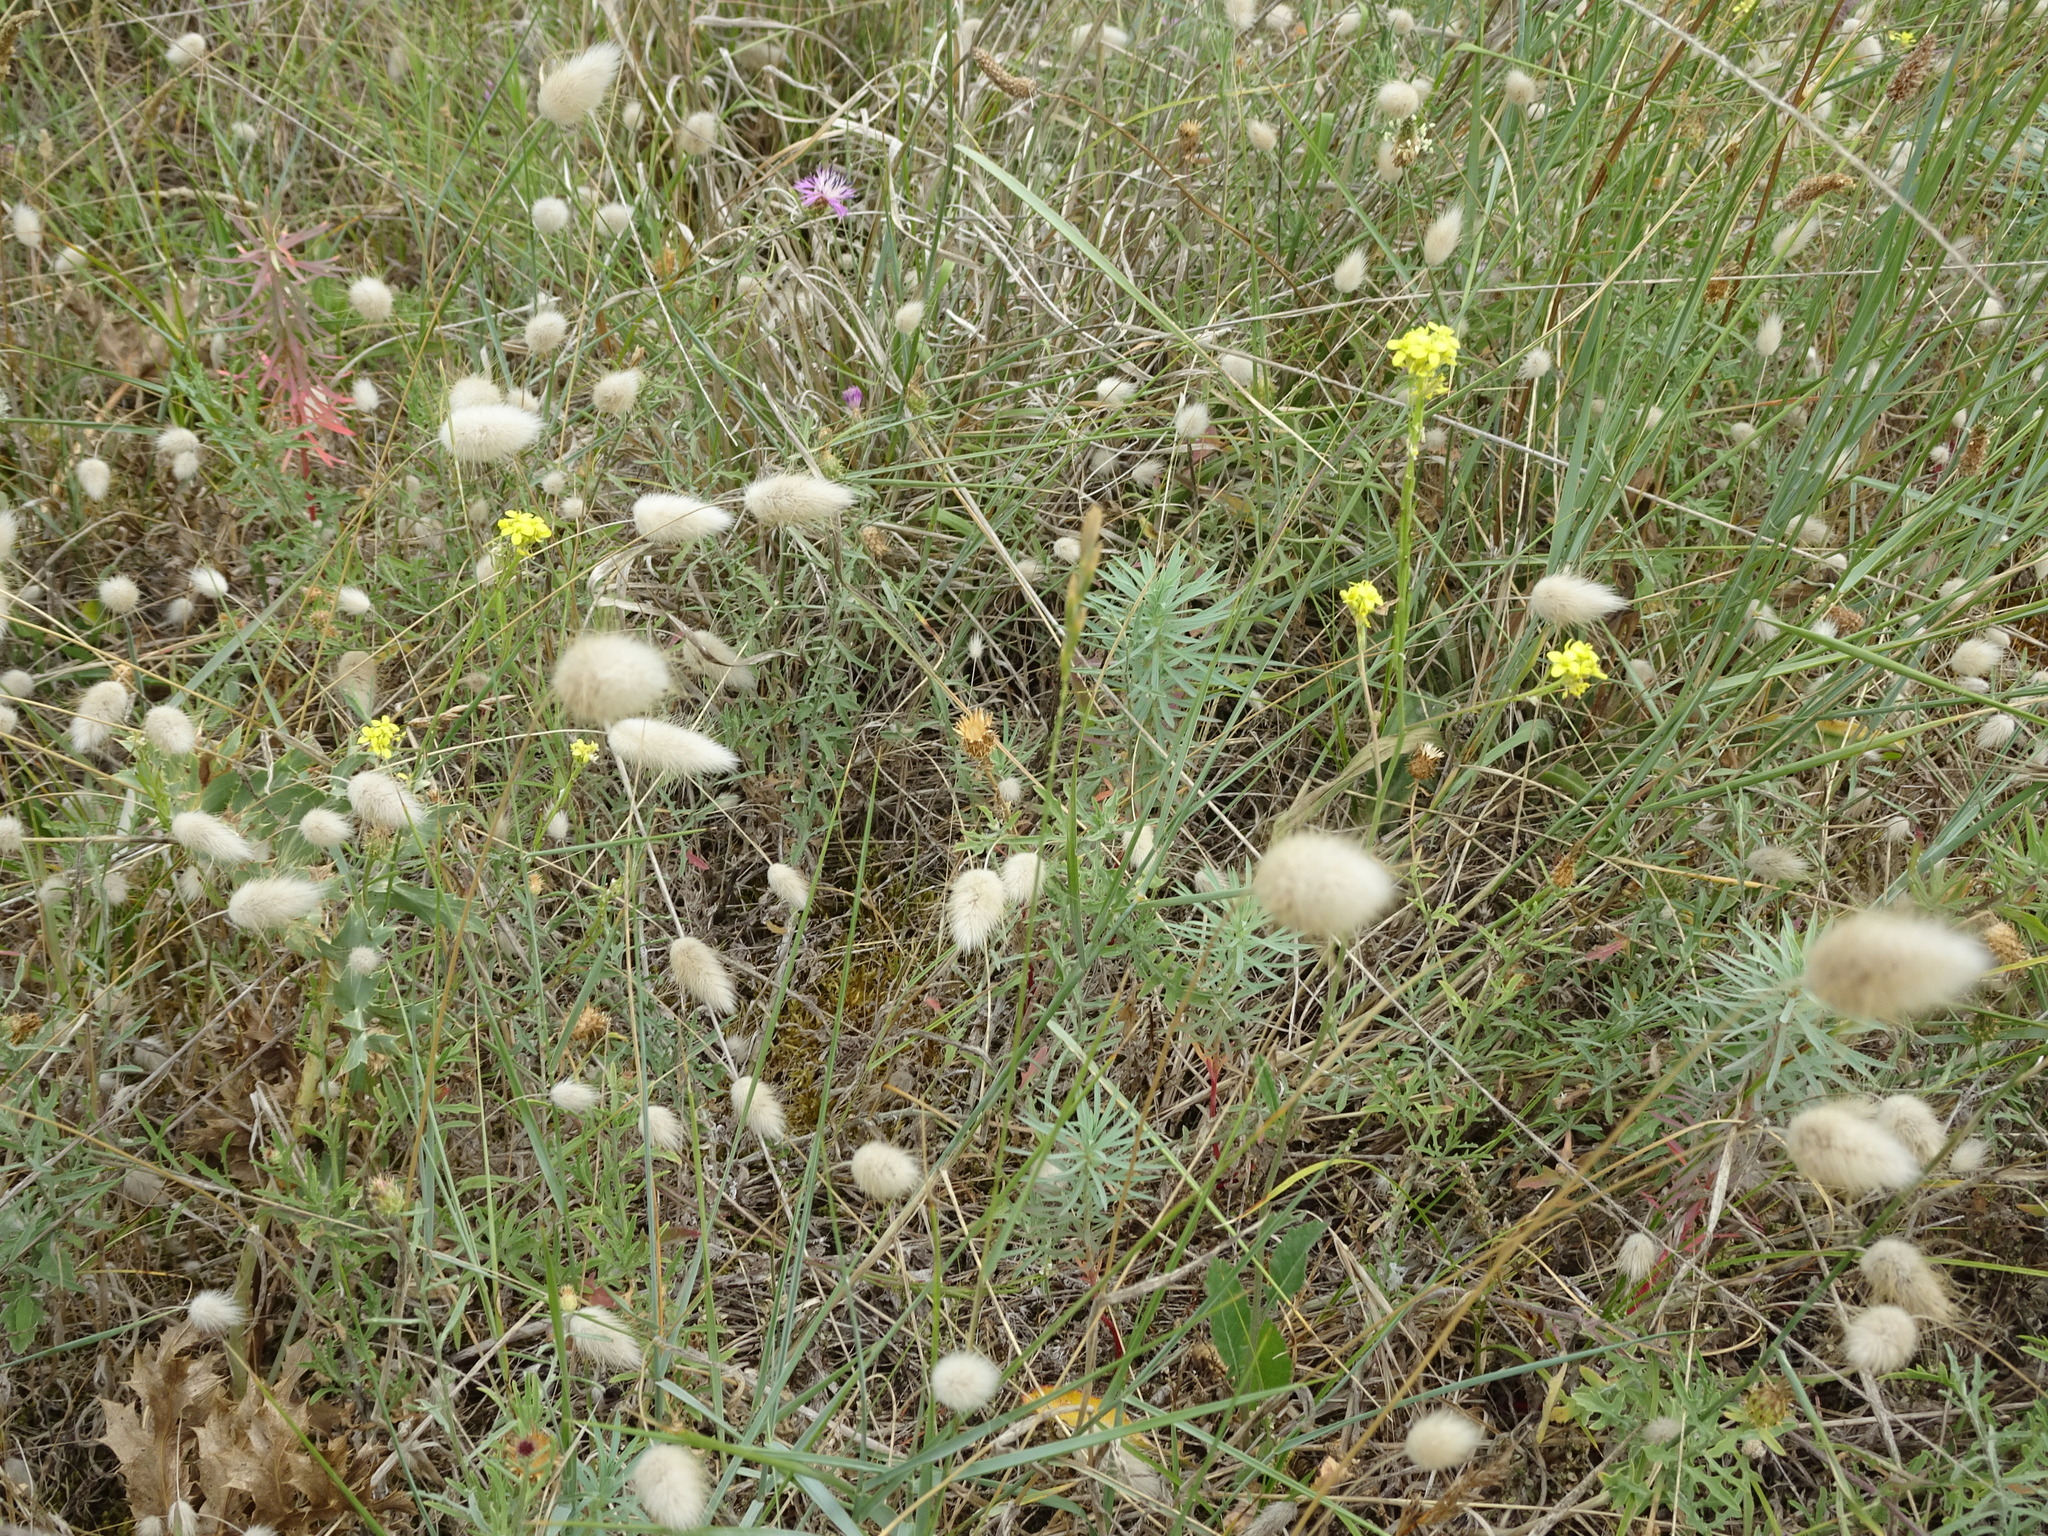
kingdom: Plantae
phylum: Tracheophyta
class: Liliopsida
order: Poales
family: Poaceae
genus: Lagurus
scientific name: Lagurus ovatus
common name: Hare's-tail
